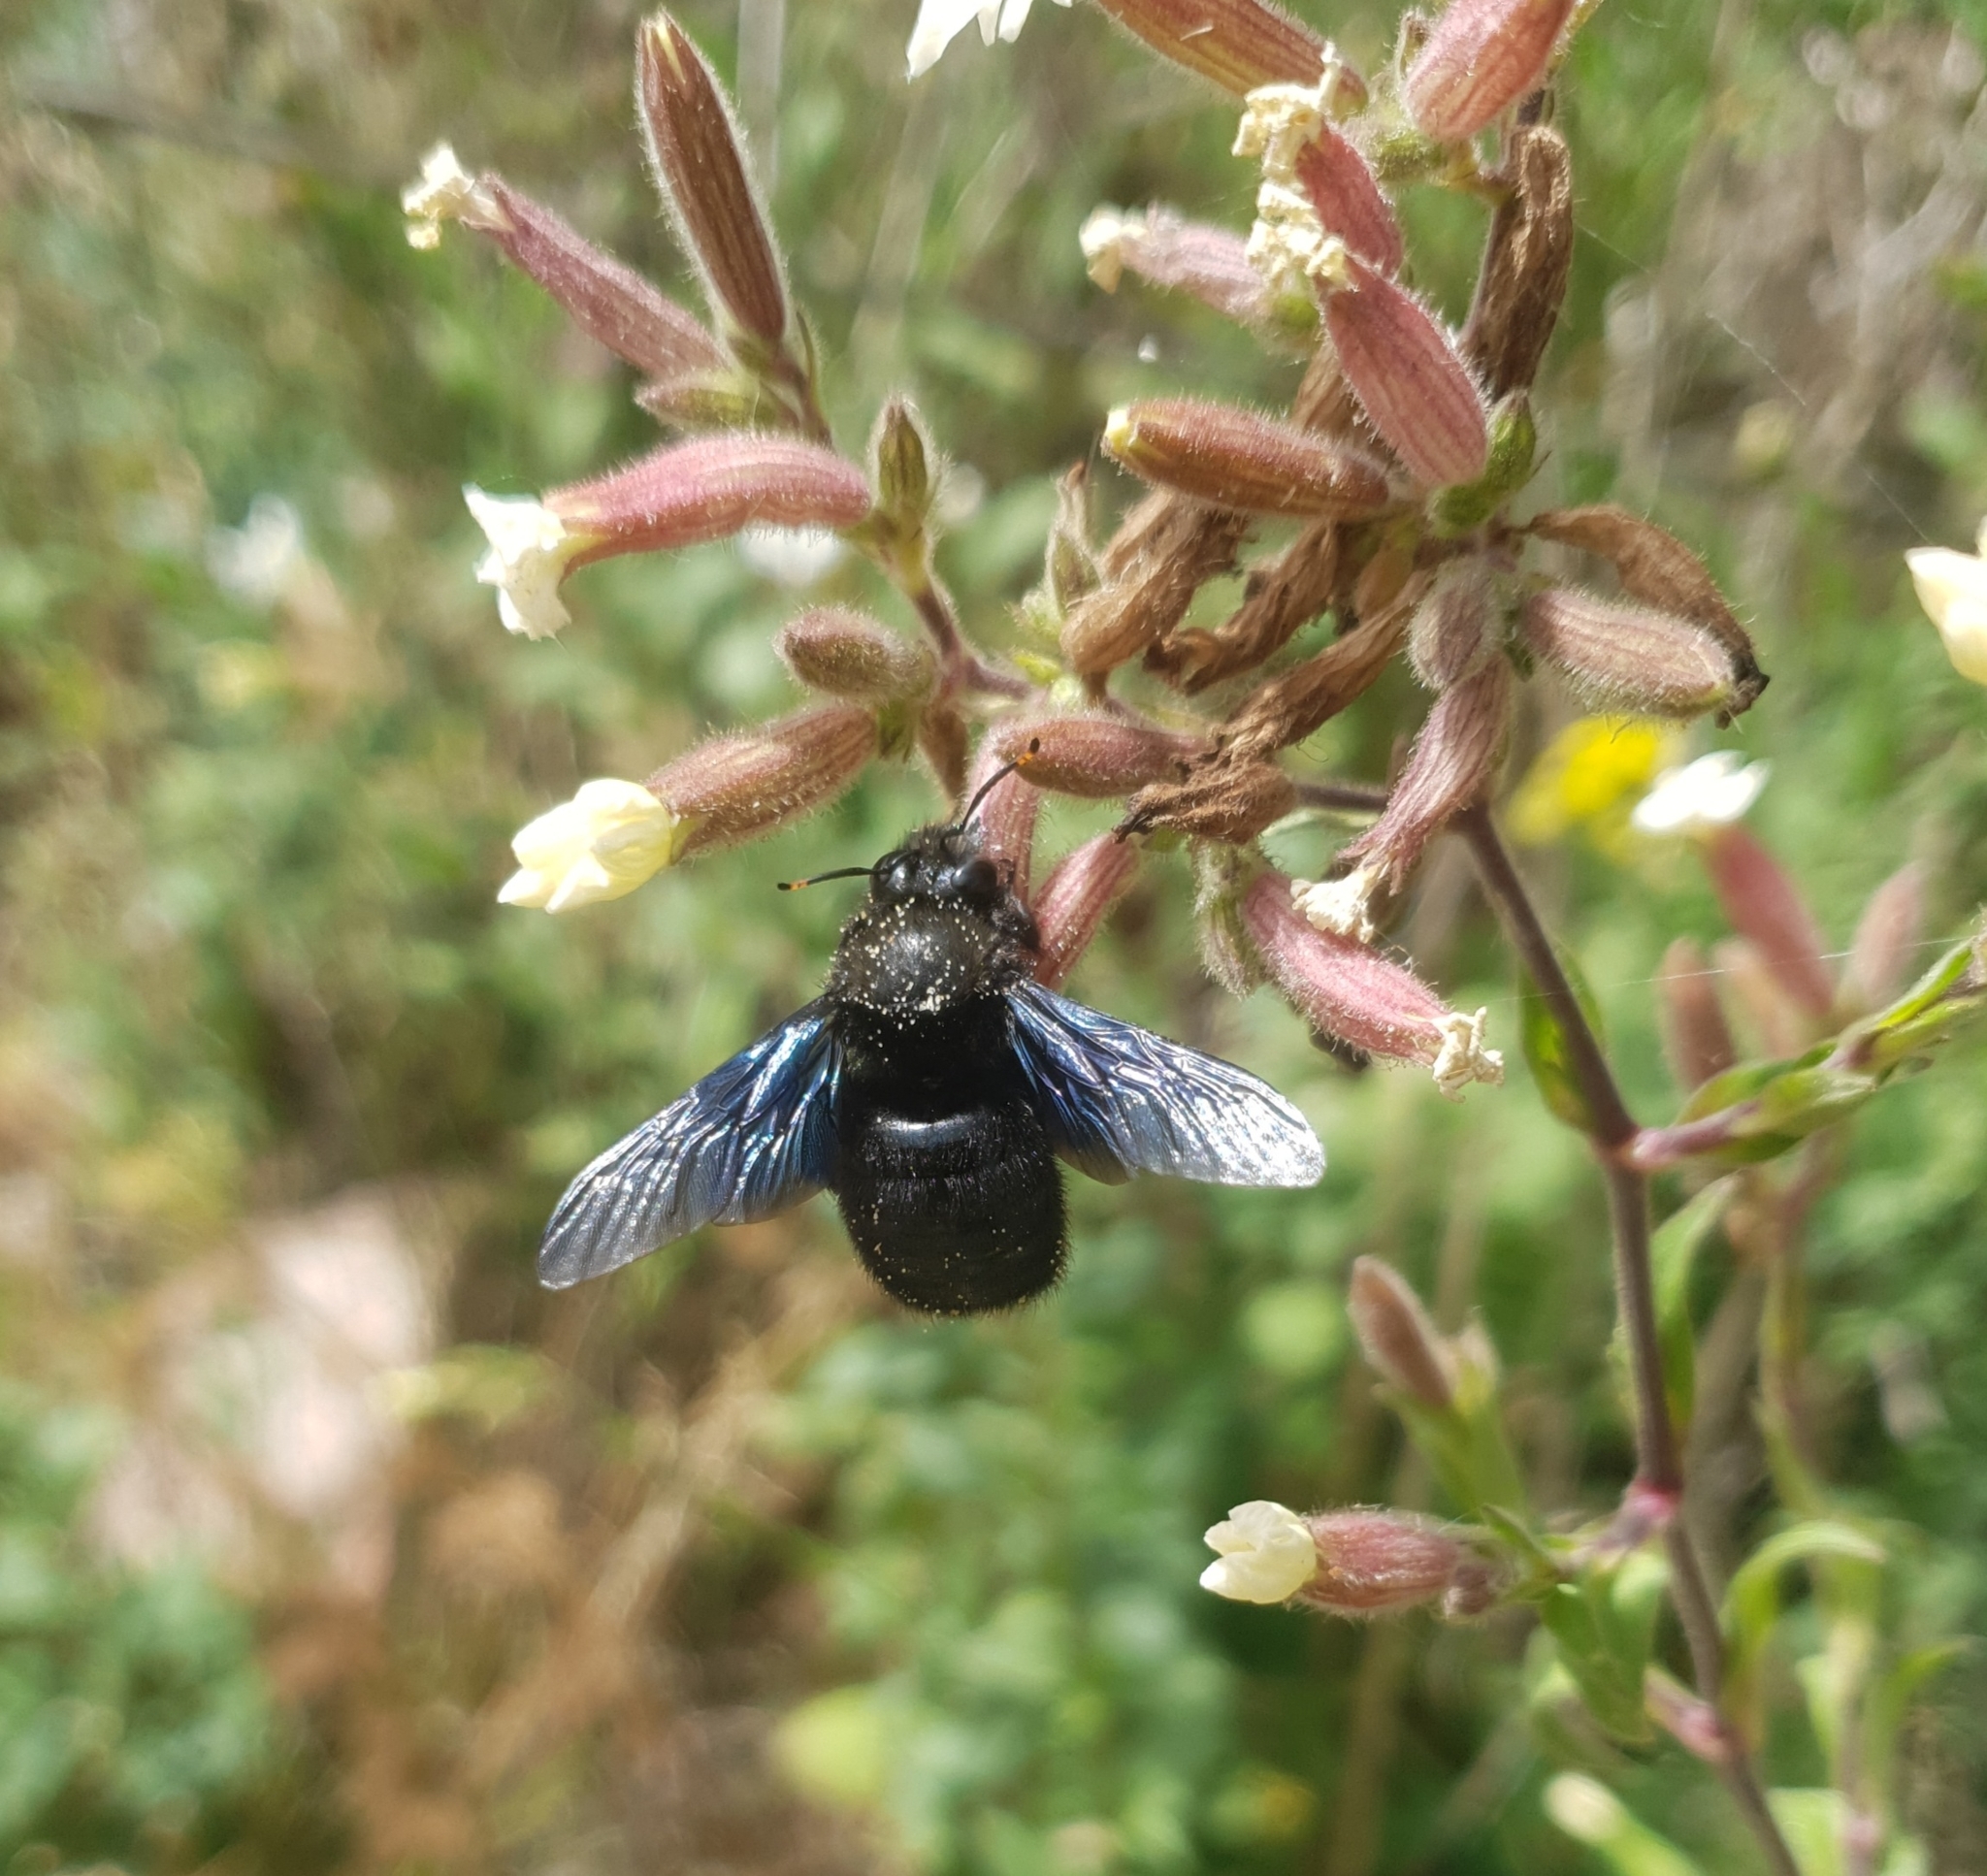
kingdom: Animalia
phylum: Arthropoda
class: Insecta
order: Hymenoptera
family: Apidae
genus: Xylocopa
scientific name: Xylocopa violacea
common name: Violet carpenter bee
